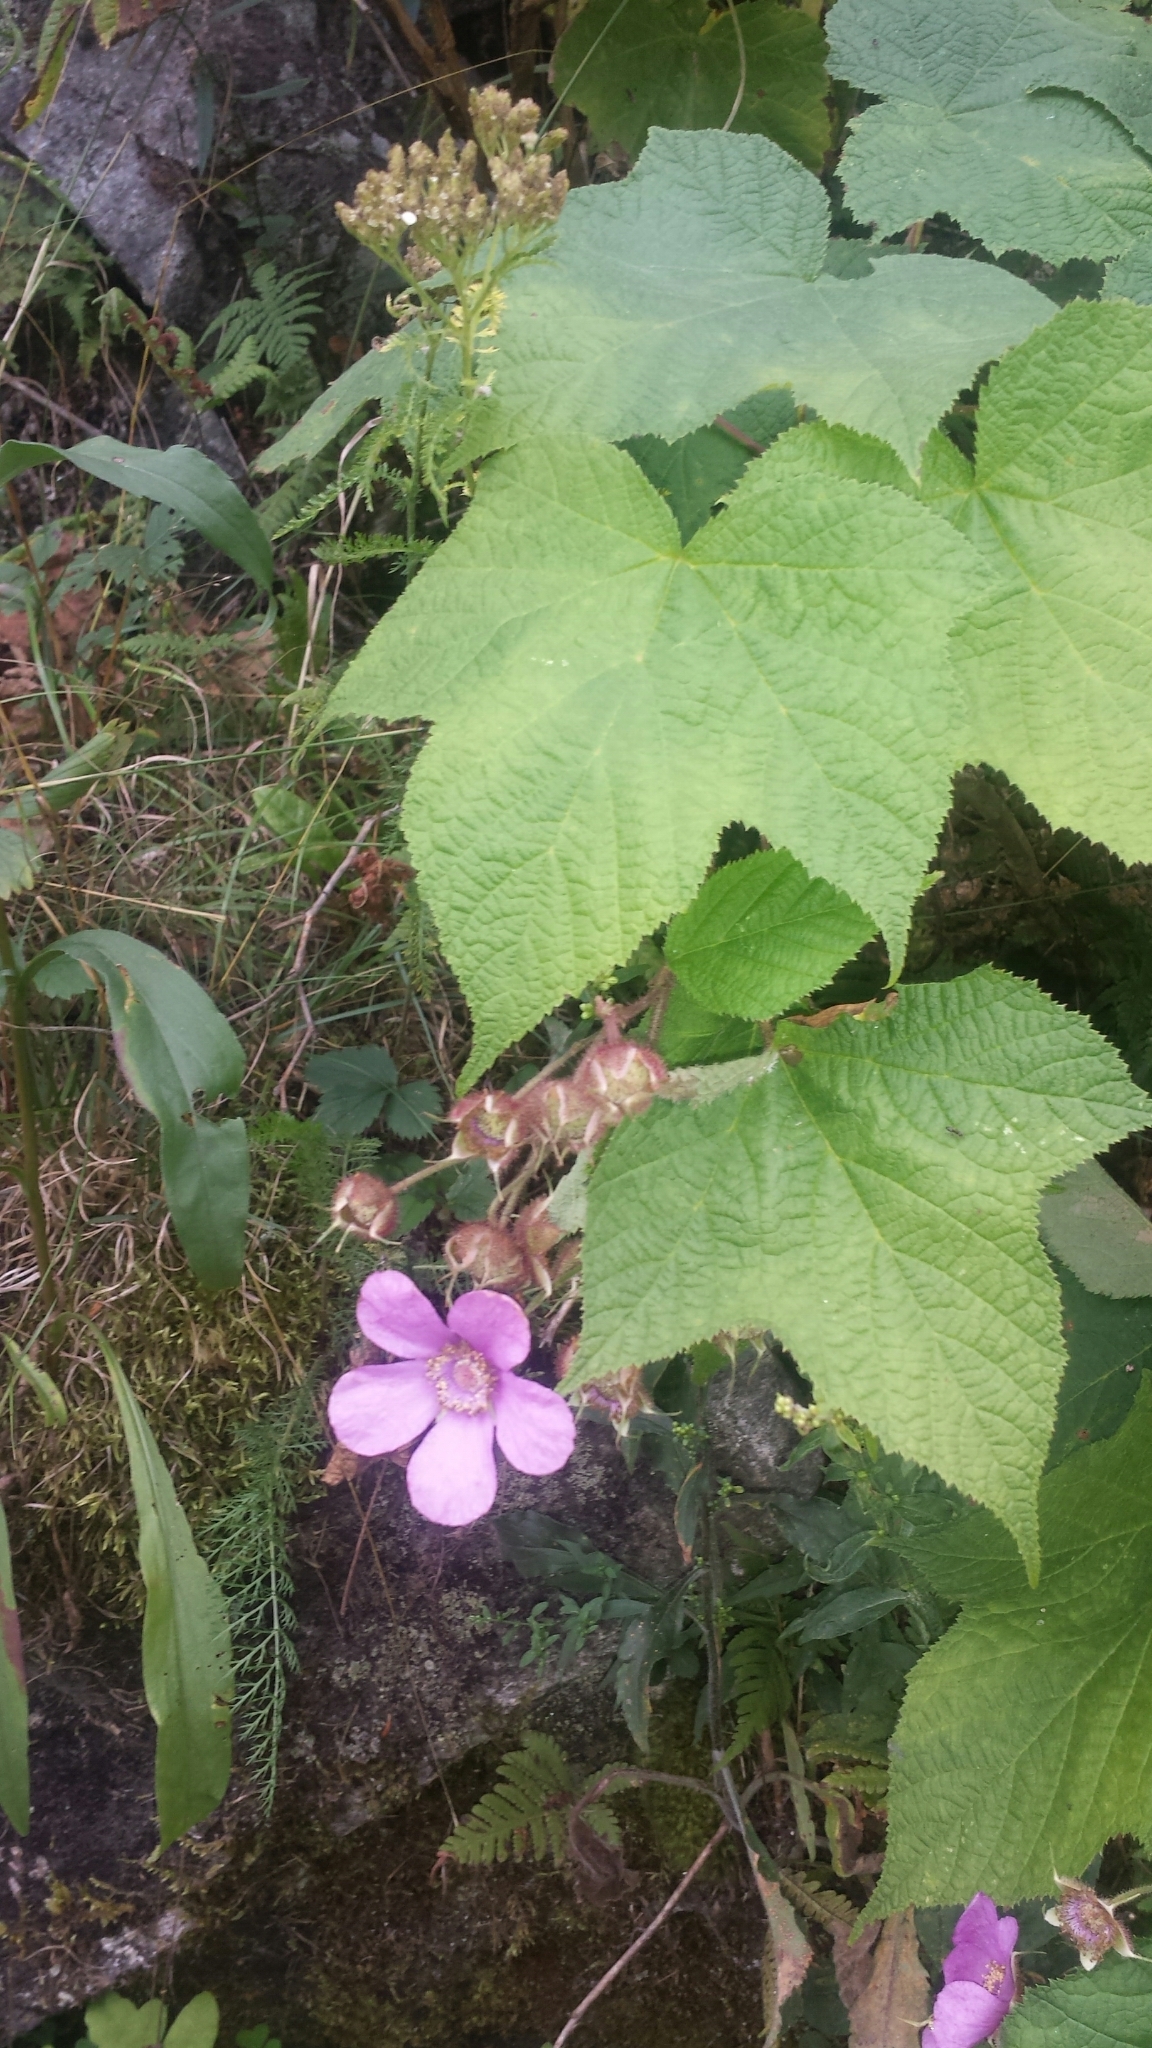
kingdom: Plantae
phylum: Tracheophyta
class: Magnoliopsida
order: Rosales
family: Rosaceae
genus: Rubus
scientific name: Rubus odoratus
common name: Purple-flowered raspberry
